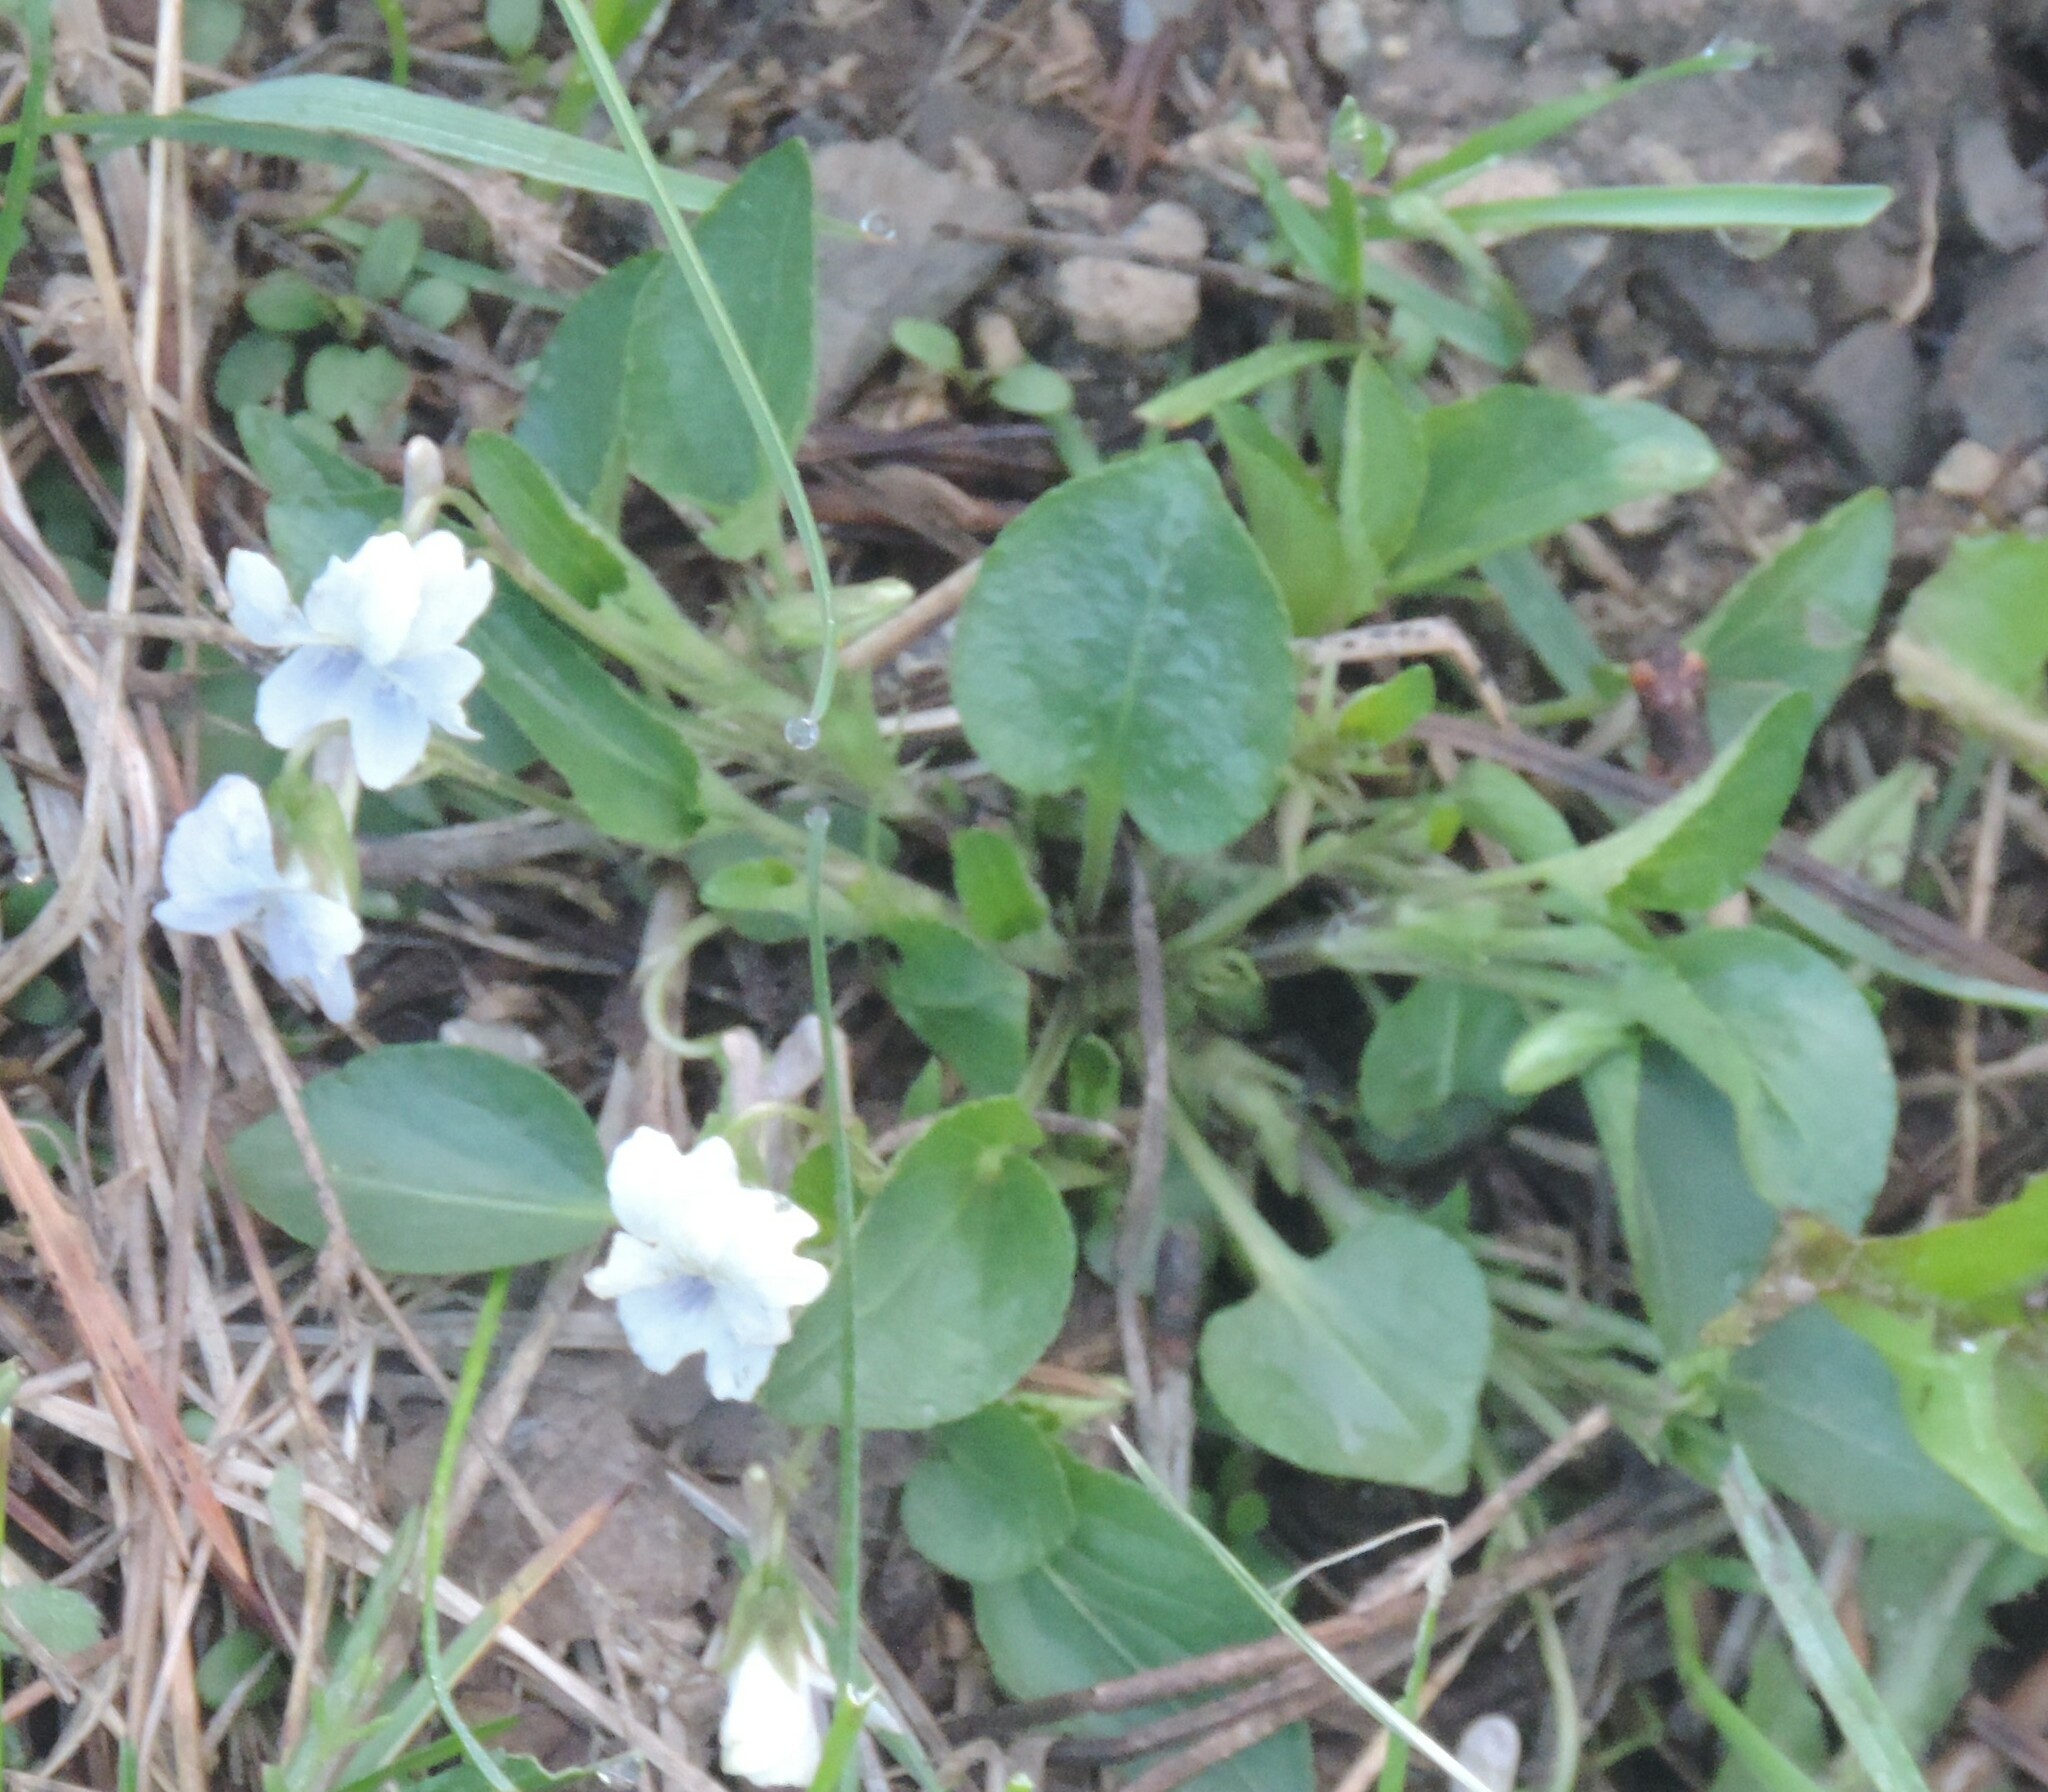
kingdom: Plantae
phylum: Tracheophyta
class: Magnoliopsida
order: Malpighiales
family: Violaceae
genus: Viola
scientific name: Viola adunca
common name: Sand violet
